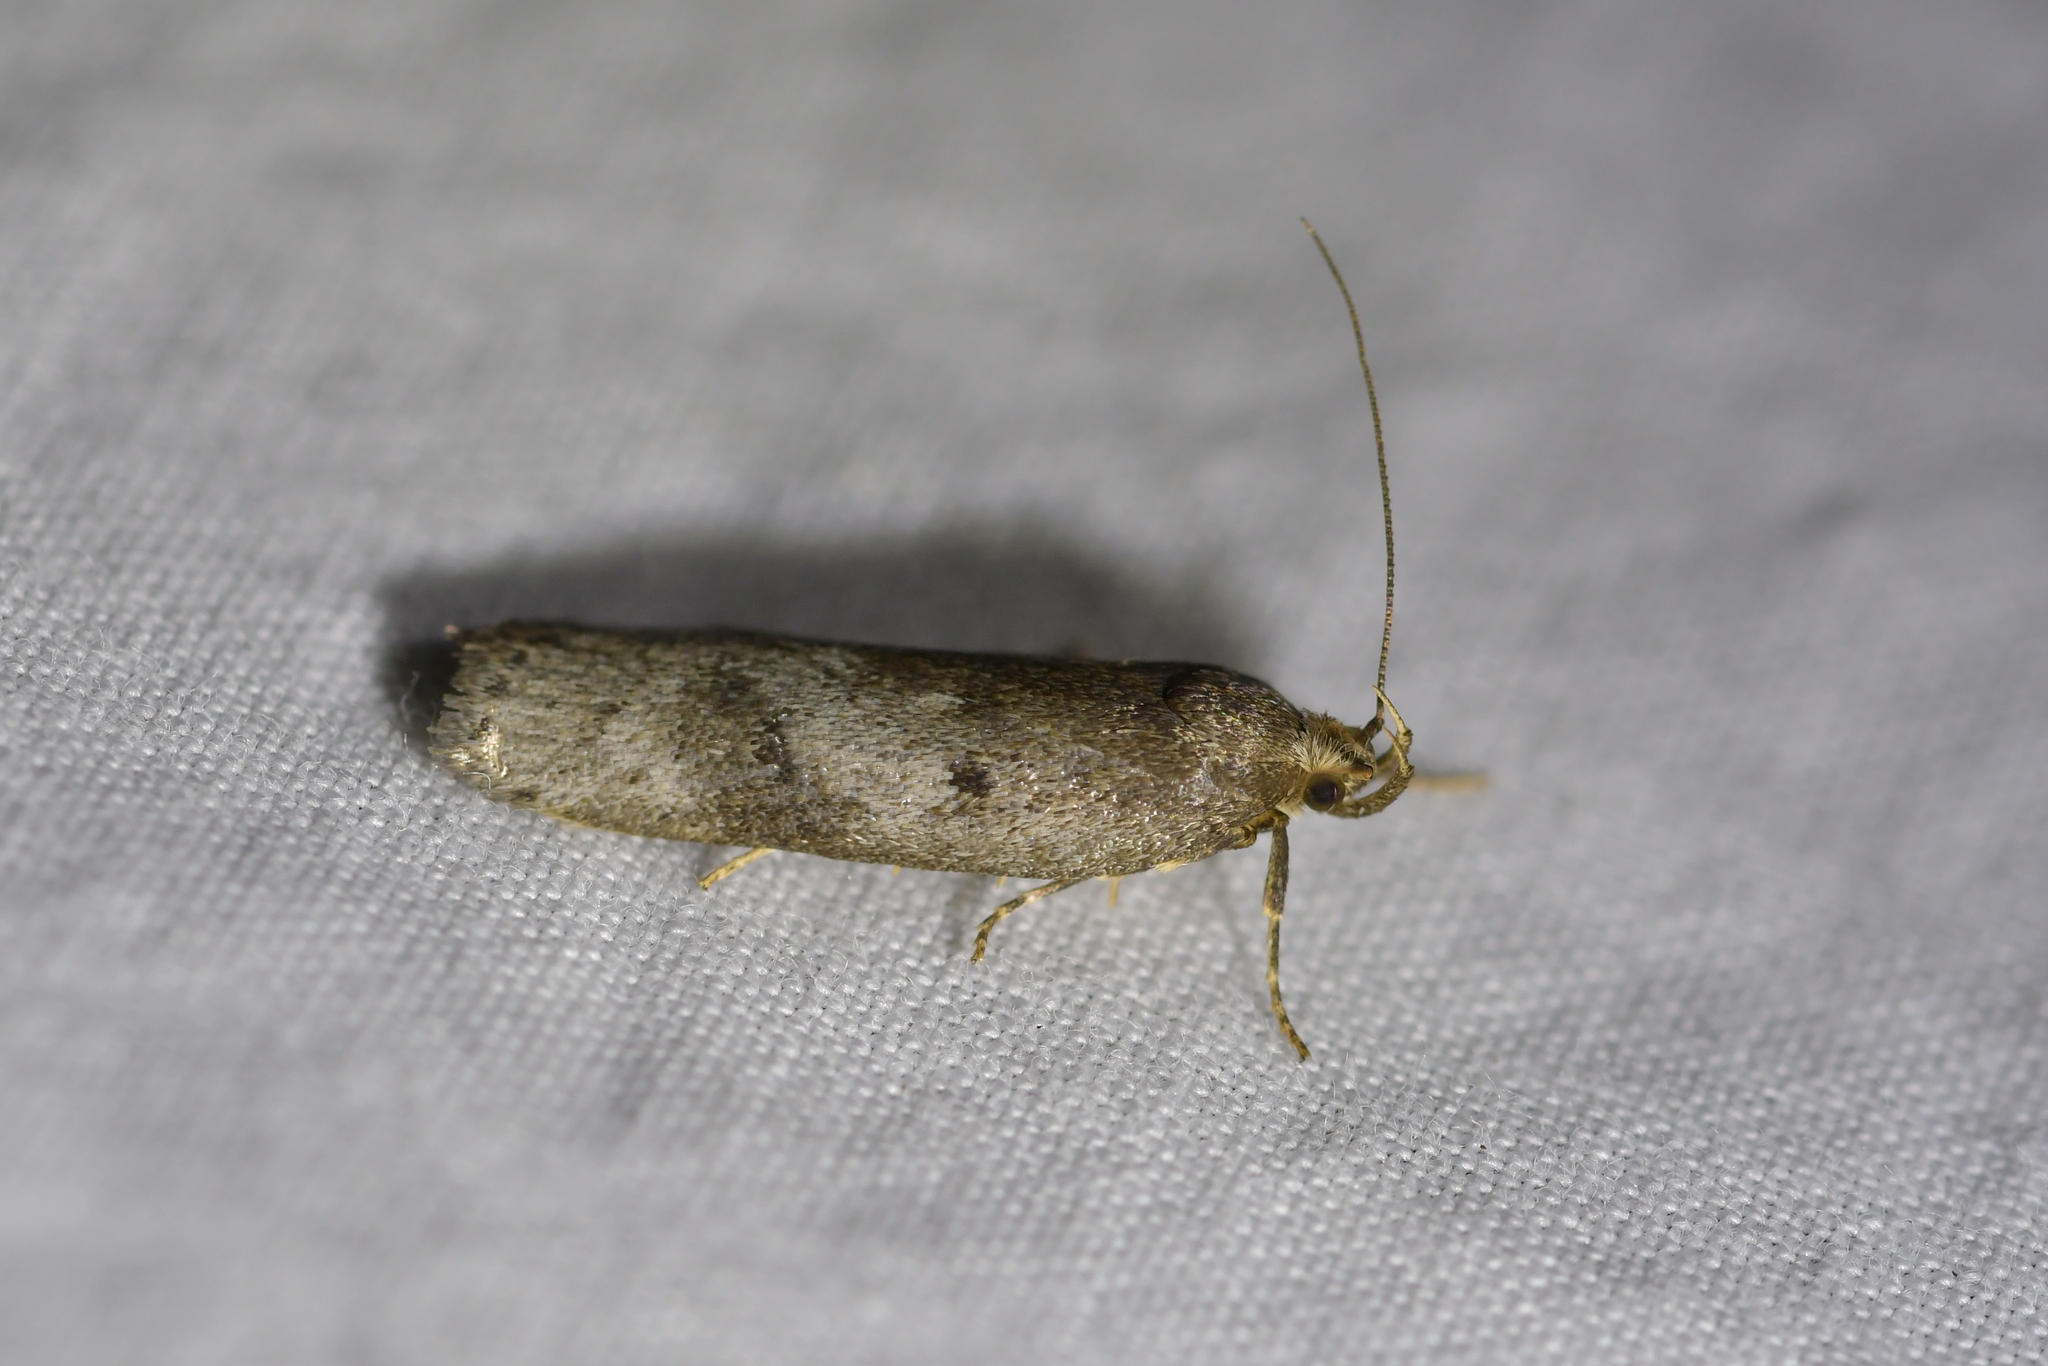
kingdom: Animalia
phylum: Arthropoda
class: Insecta
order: Lepidoptera
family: Depressariidae
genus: Phaeosaces
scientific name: Phaeosaces apocrypta
